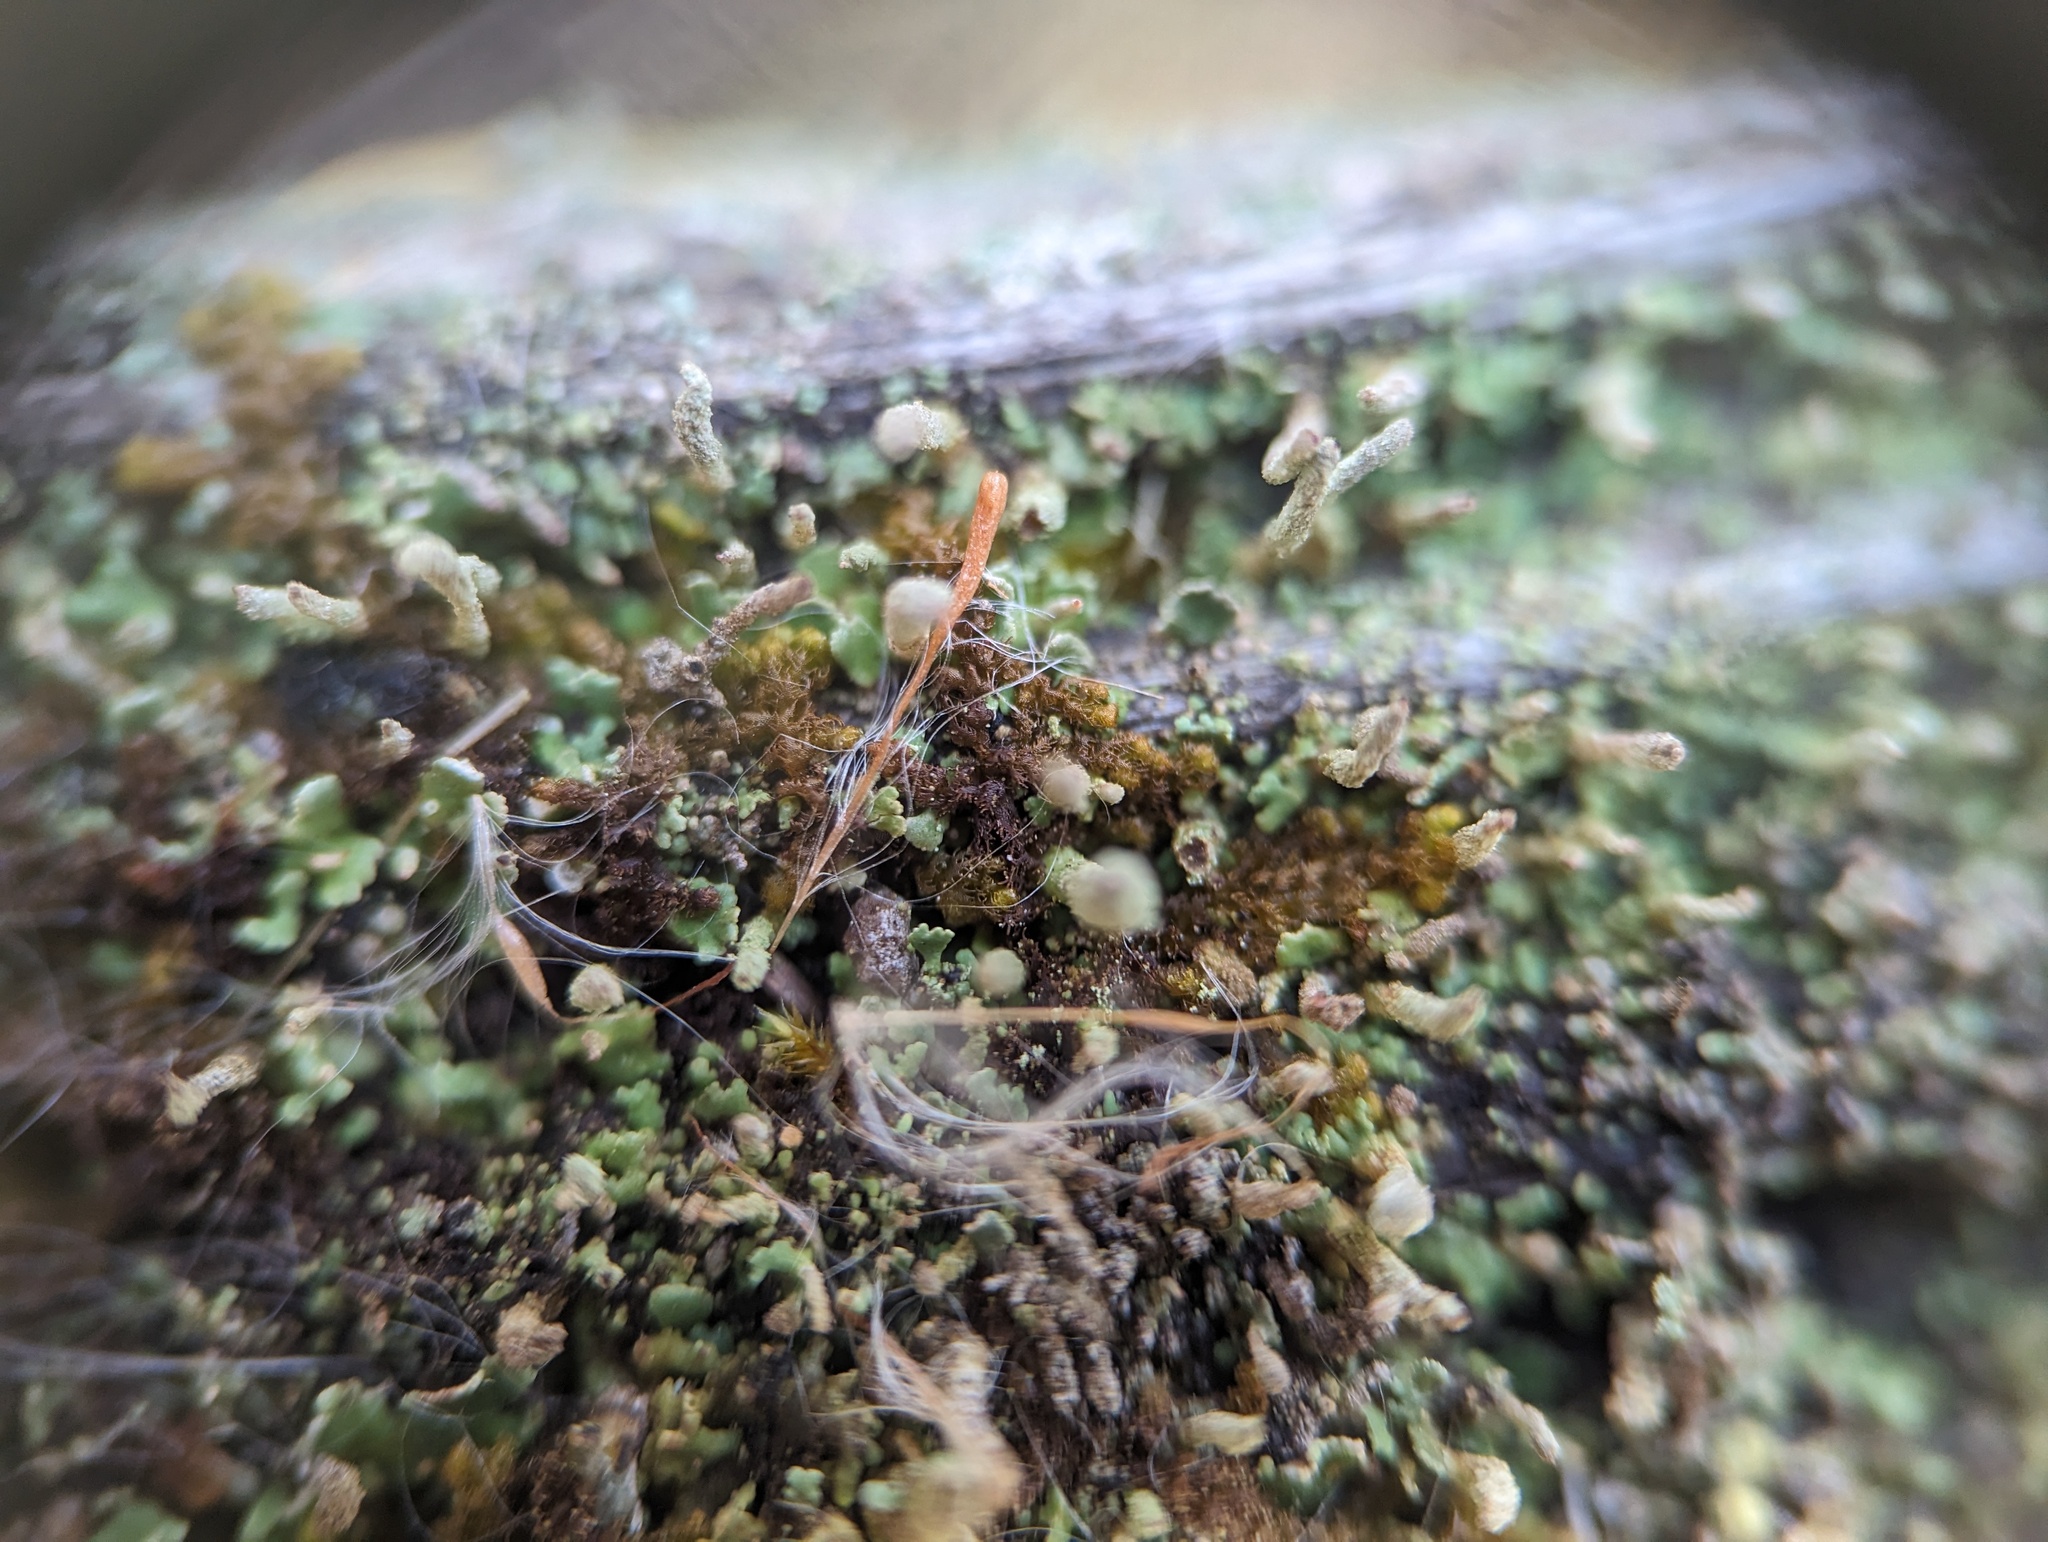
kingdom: Plantae
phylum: Marchantiophyta
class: Jungermanniopsida
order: Ptilidiales
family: Ptilidiaceae
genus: Ptilidium
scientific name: Ptilidium pulcherrimum
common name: Tree fringewort
